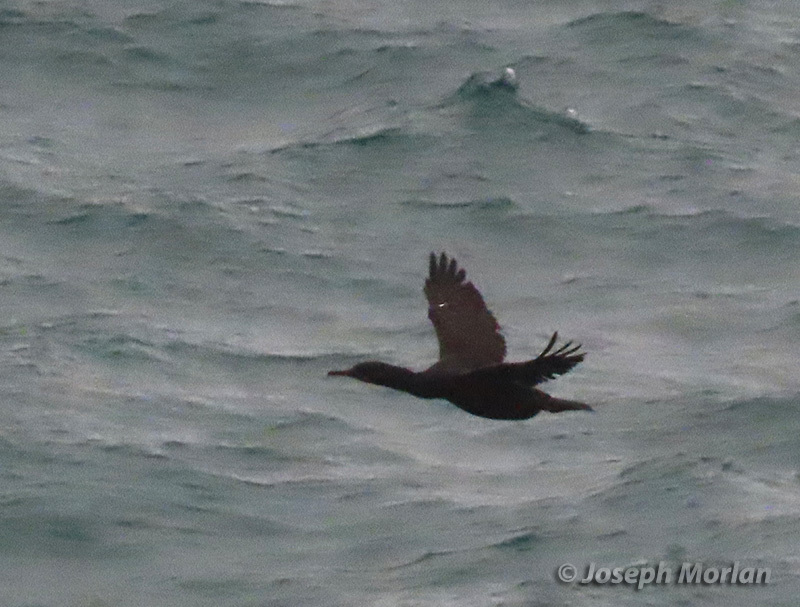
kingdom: Animalia
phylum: Chordata
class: Aves
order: Suliformes
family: Phalacrocoracidae
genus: Urile
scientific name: Urile penicillatus
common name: Brandt's cormorant
